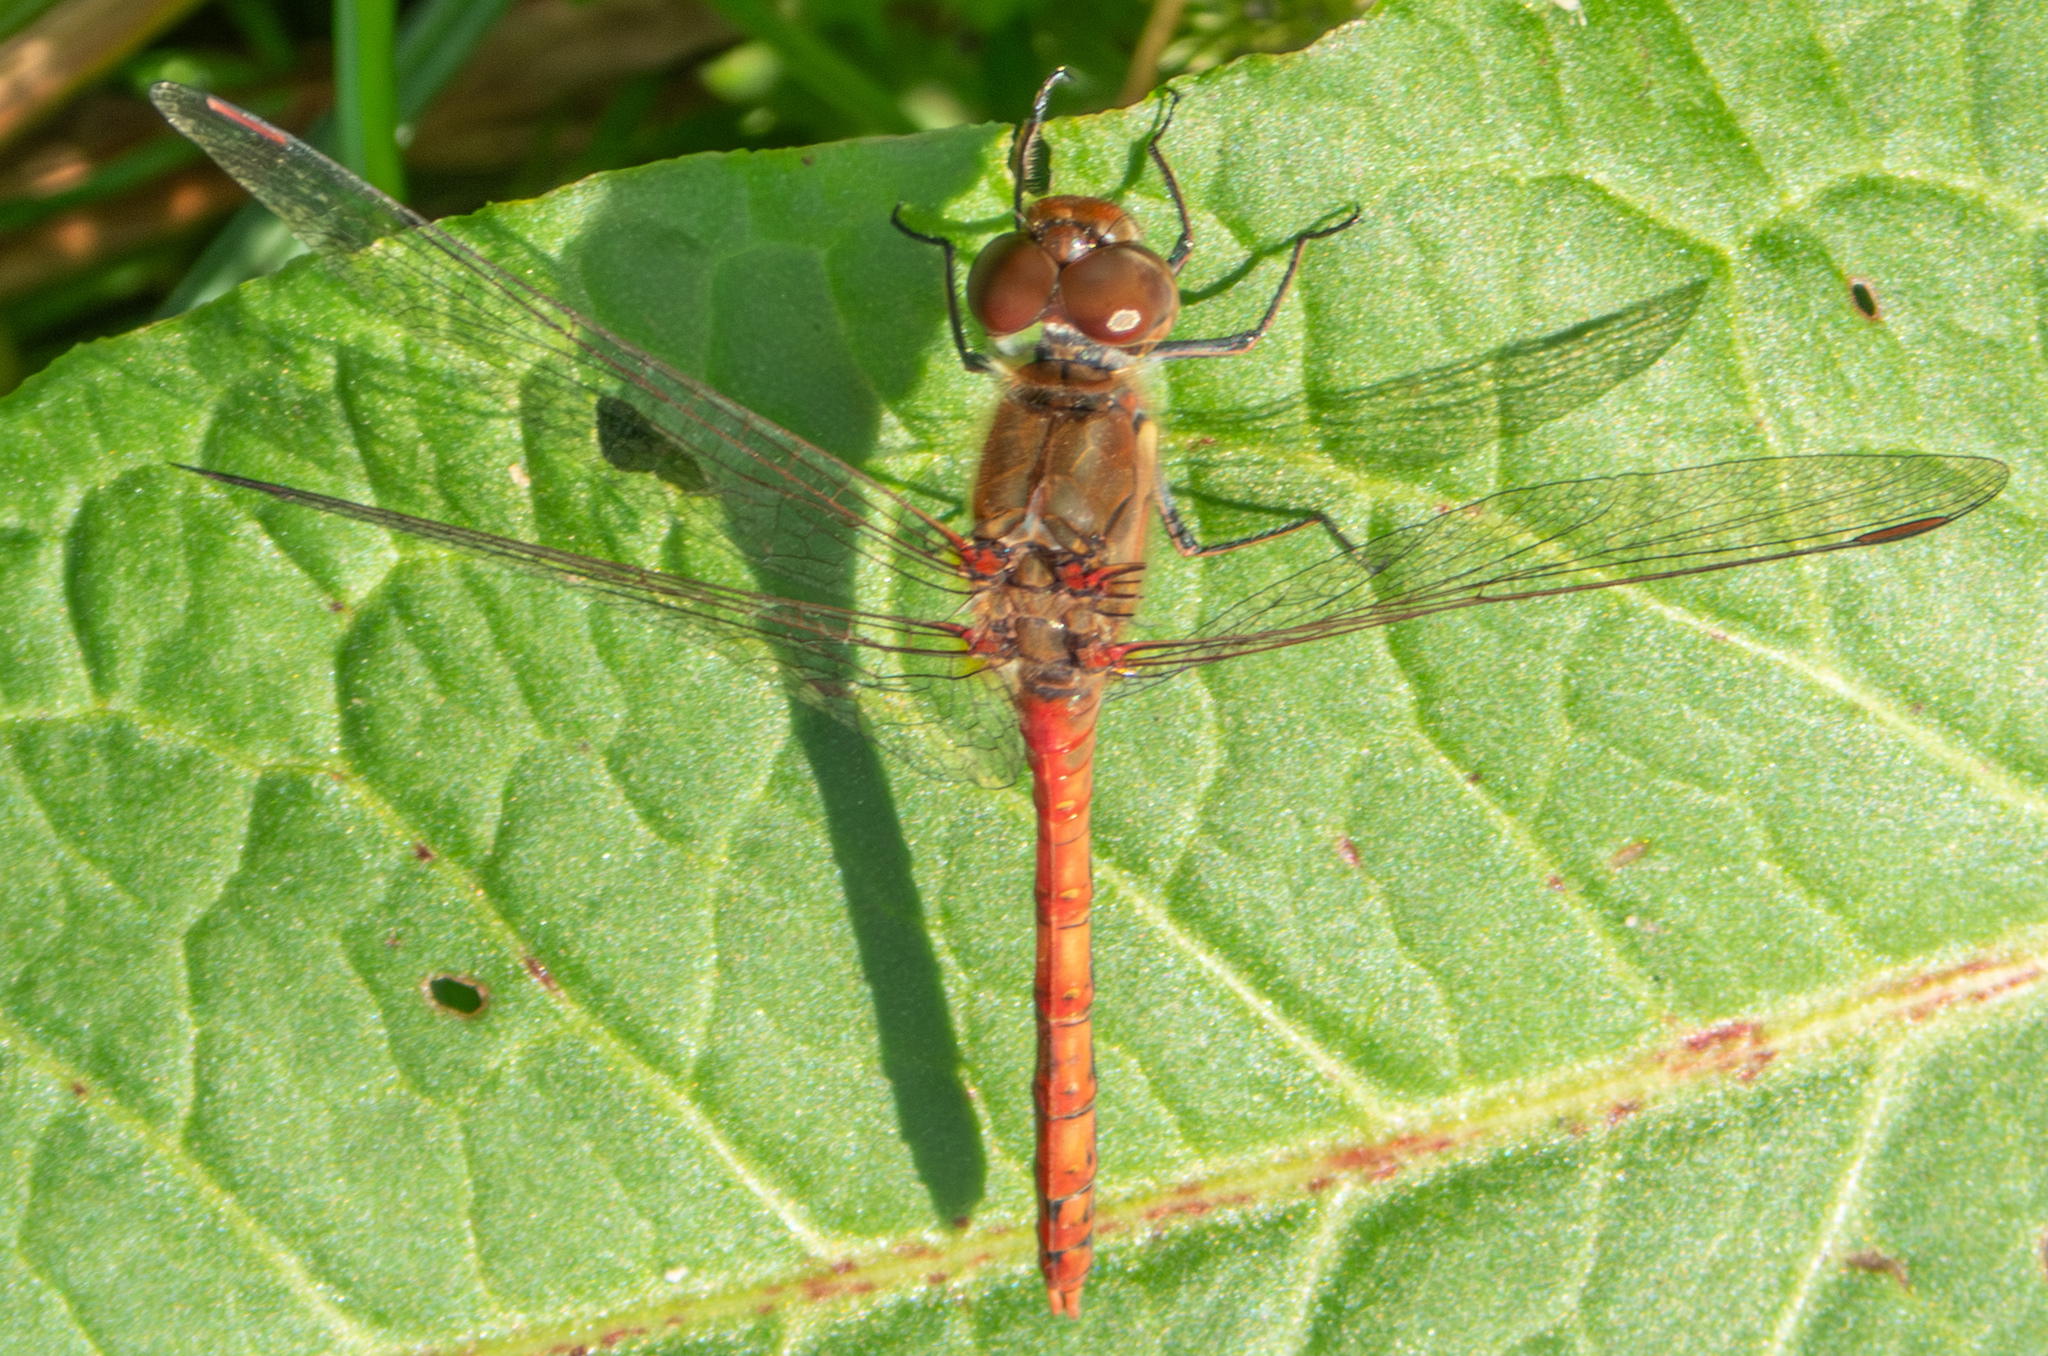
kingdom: Animalia
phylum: Arthropoda
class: Insecta
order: Odonata
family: Libellulidae
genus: Sympetrum
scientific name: Sympetrum striolatum
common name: Common darter
